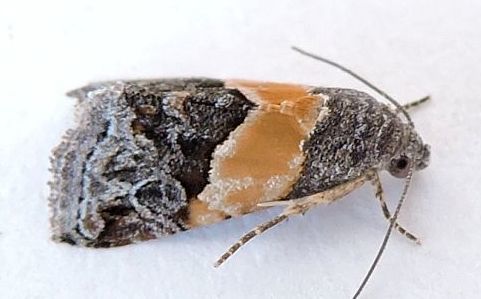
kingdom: Animalia
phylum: Arthropoda
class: Insecta
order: Lepidoptera
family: Noctuidae
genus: Tripudia
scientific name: Tripudia balteata
